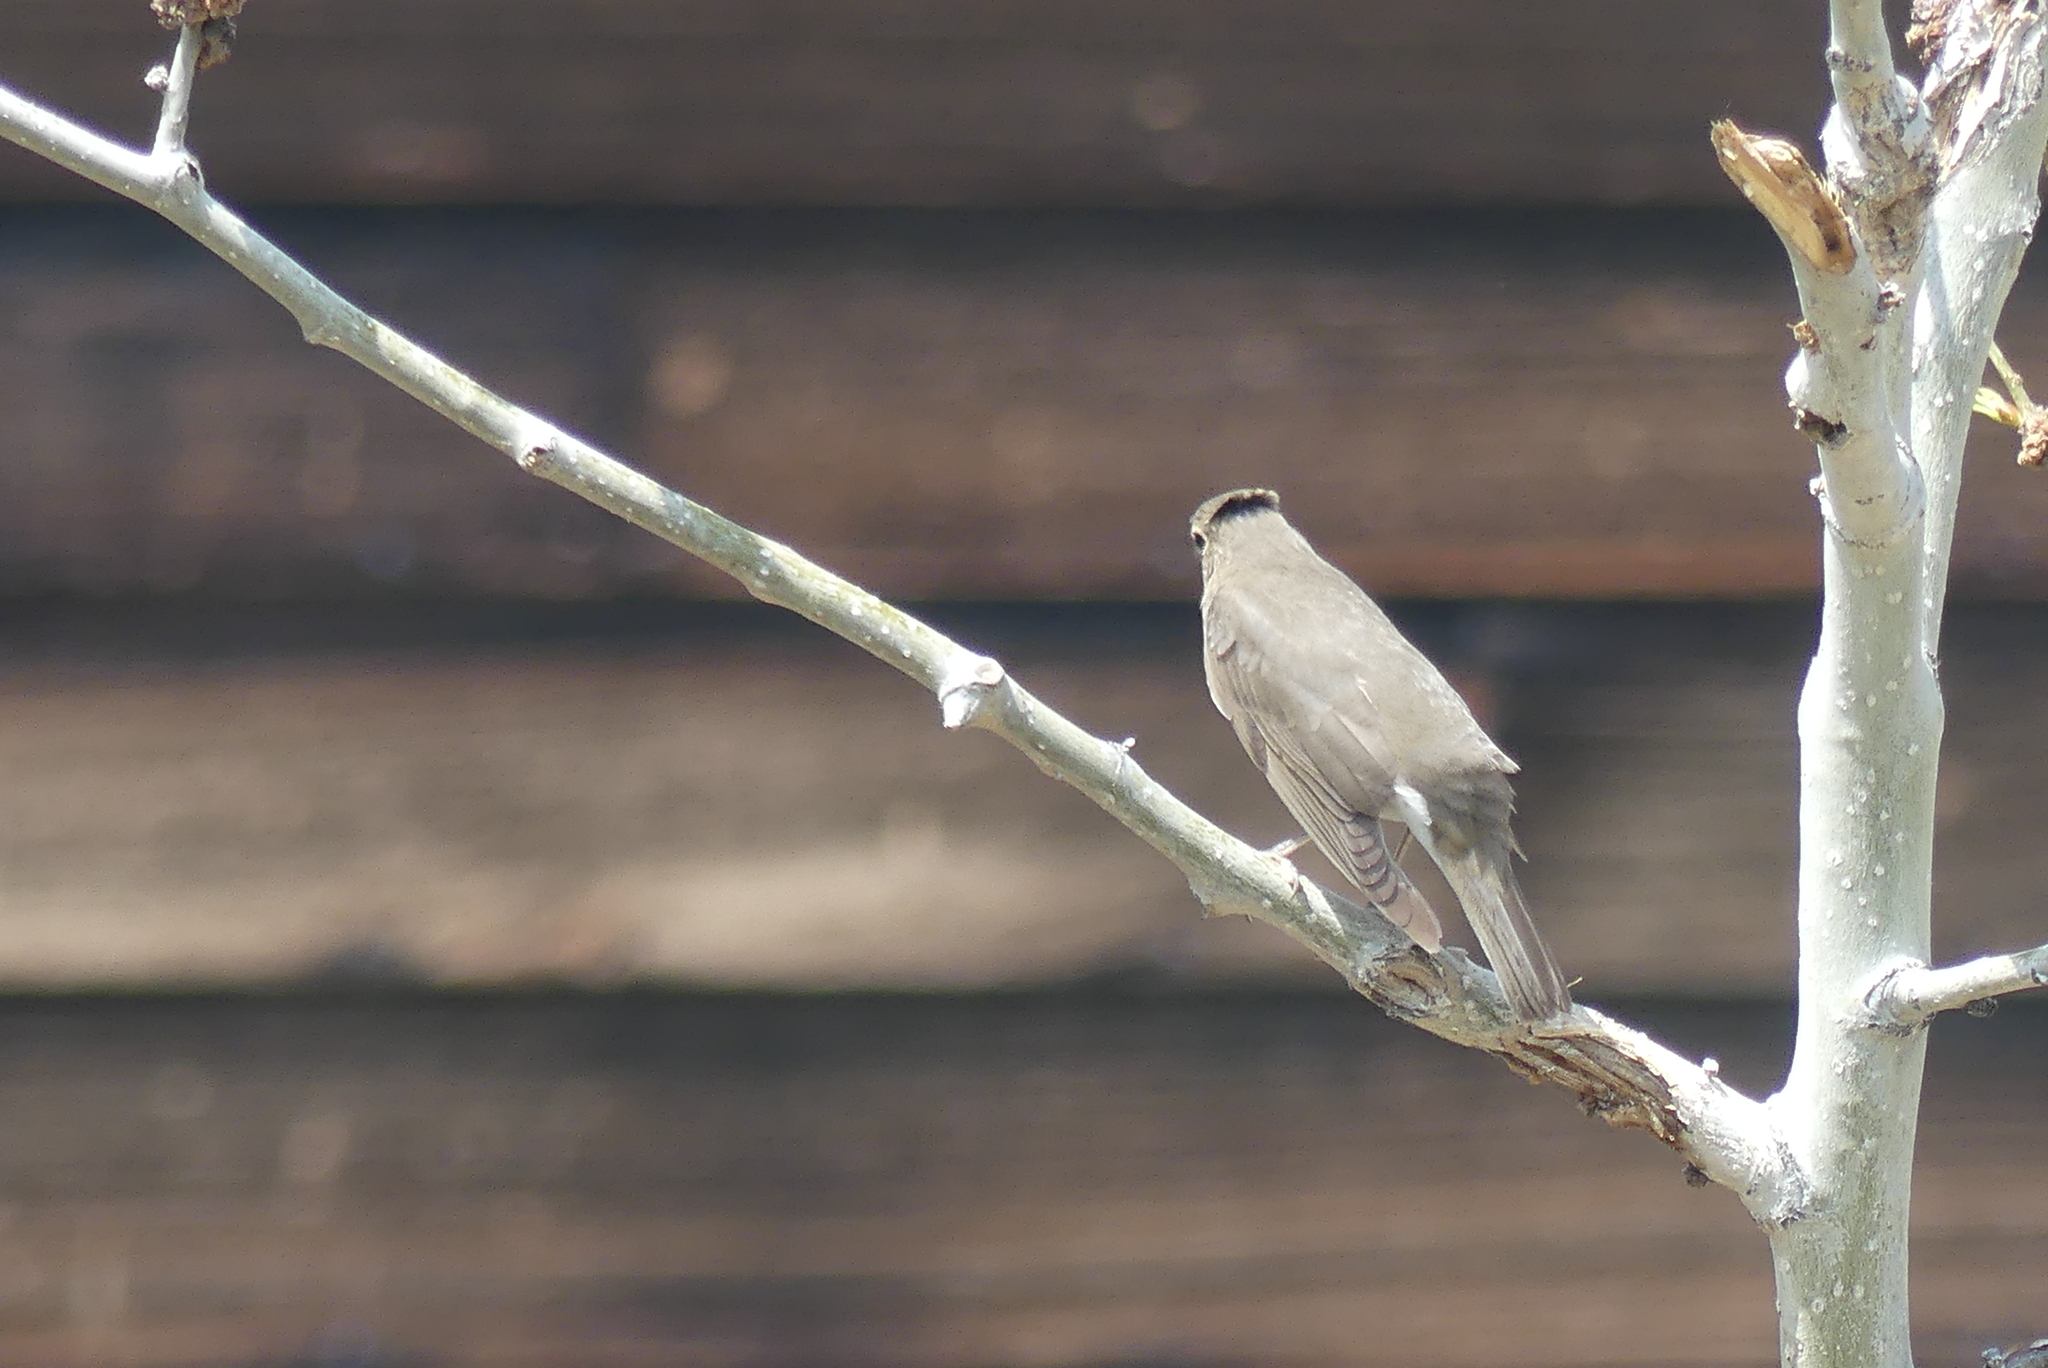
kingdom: Animalia
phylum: Chordata
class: Aves
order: Passeriformes
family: Turdidae
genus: Catharus
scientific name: Catharus ustulatus
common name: Swainson's thrush
